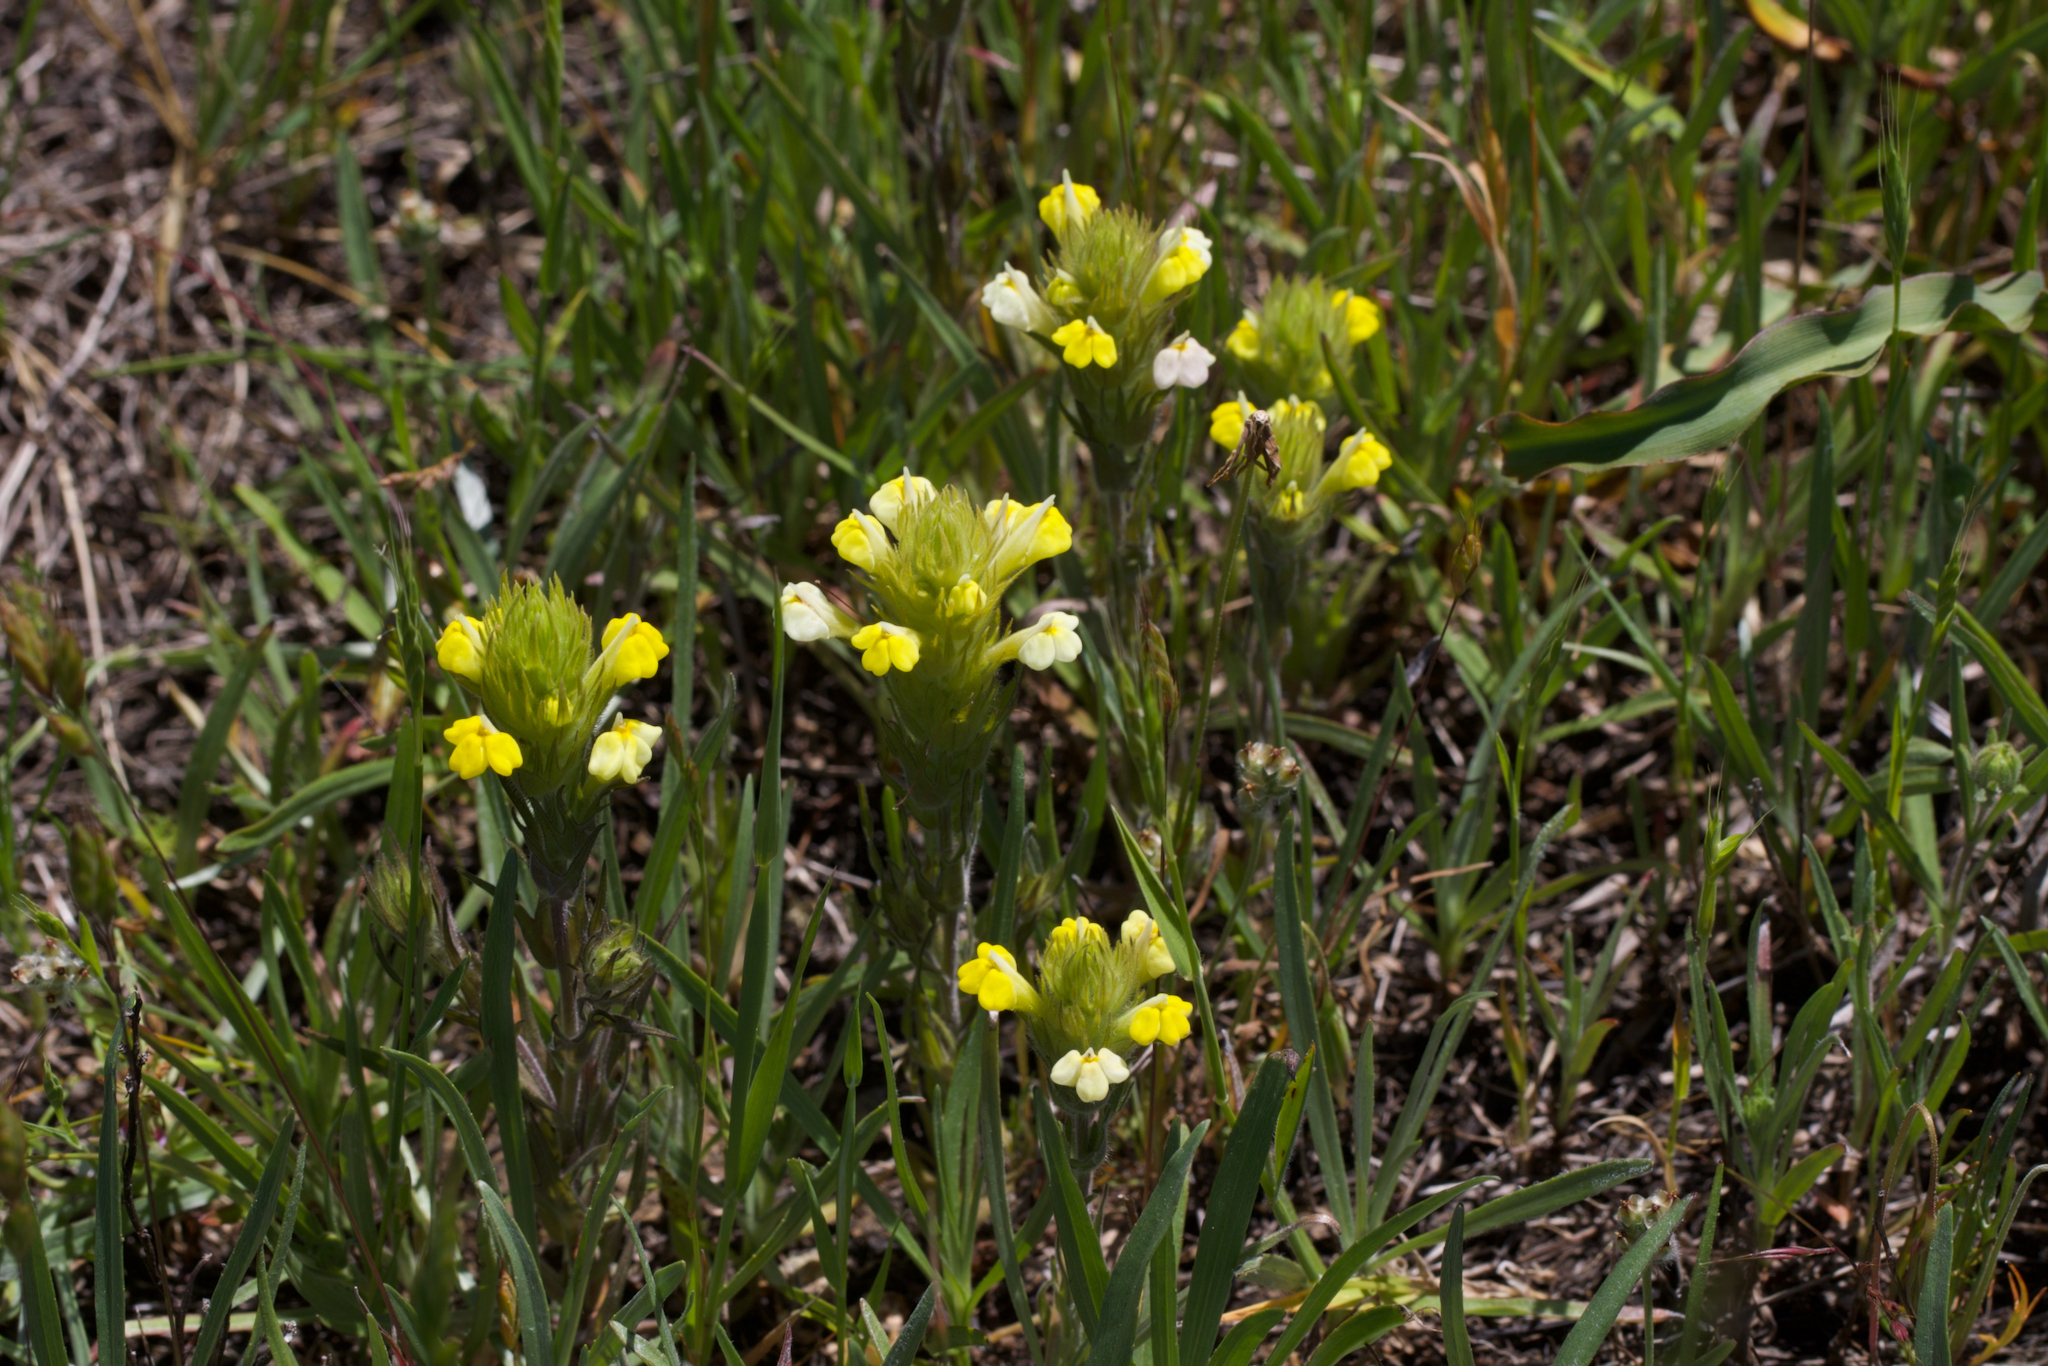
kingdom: Plantae
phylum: Tracheophyta
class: Magnoliopsida
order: Lamiales
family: Orobanchaceae
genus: Castilleja
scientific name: Castilleja rubicundula
